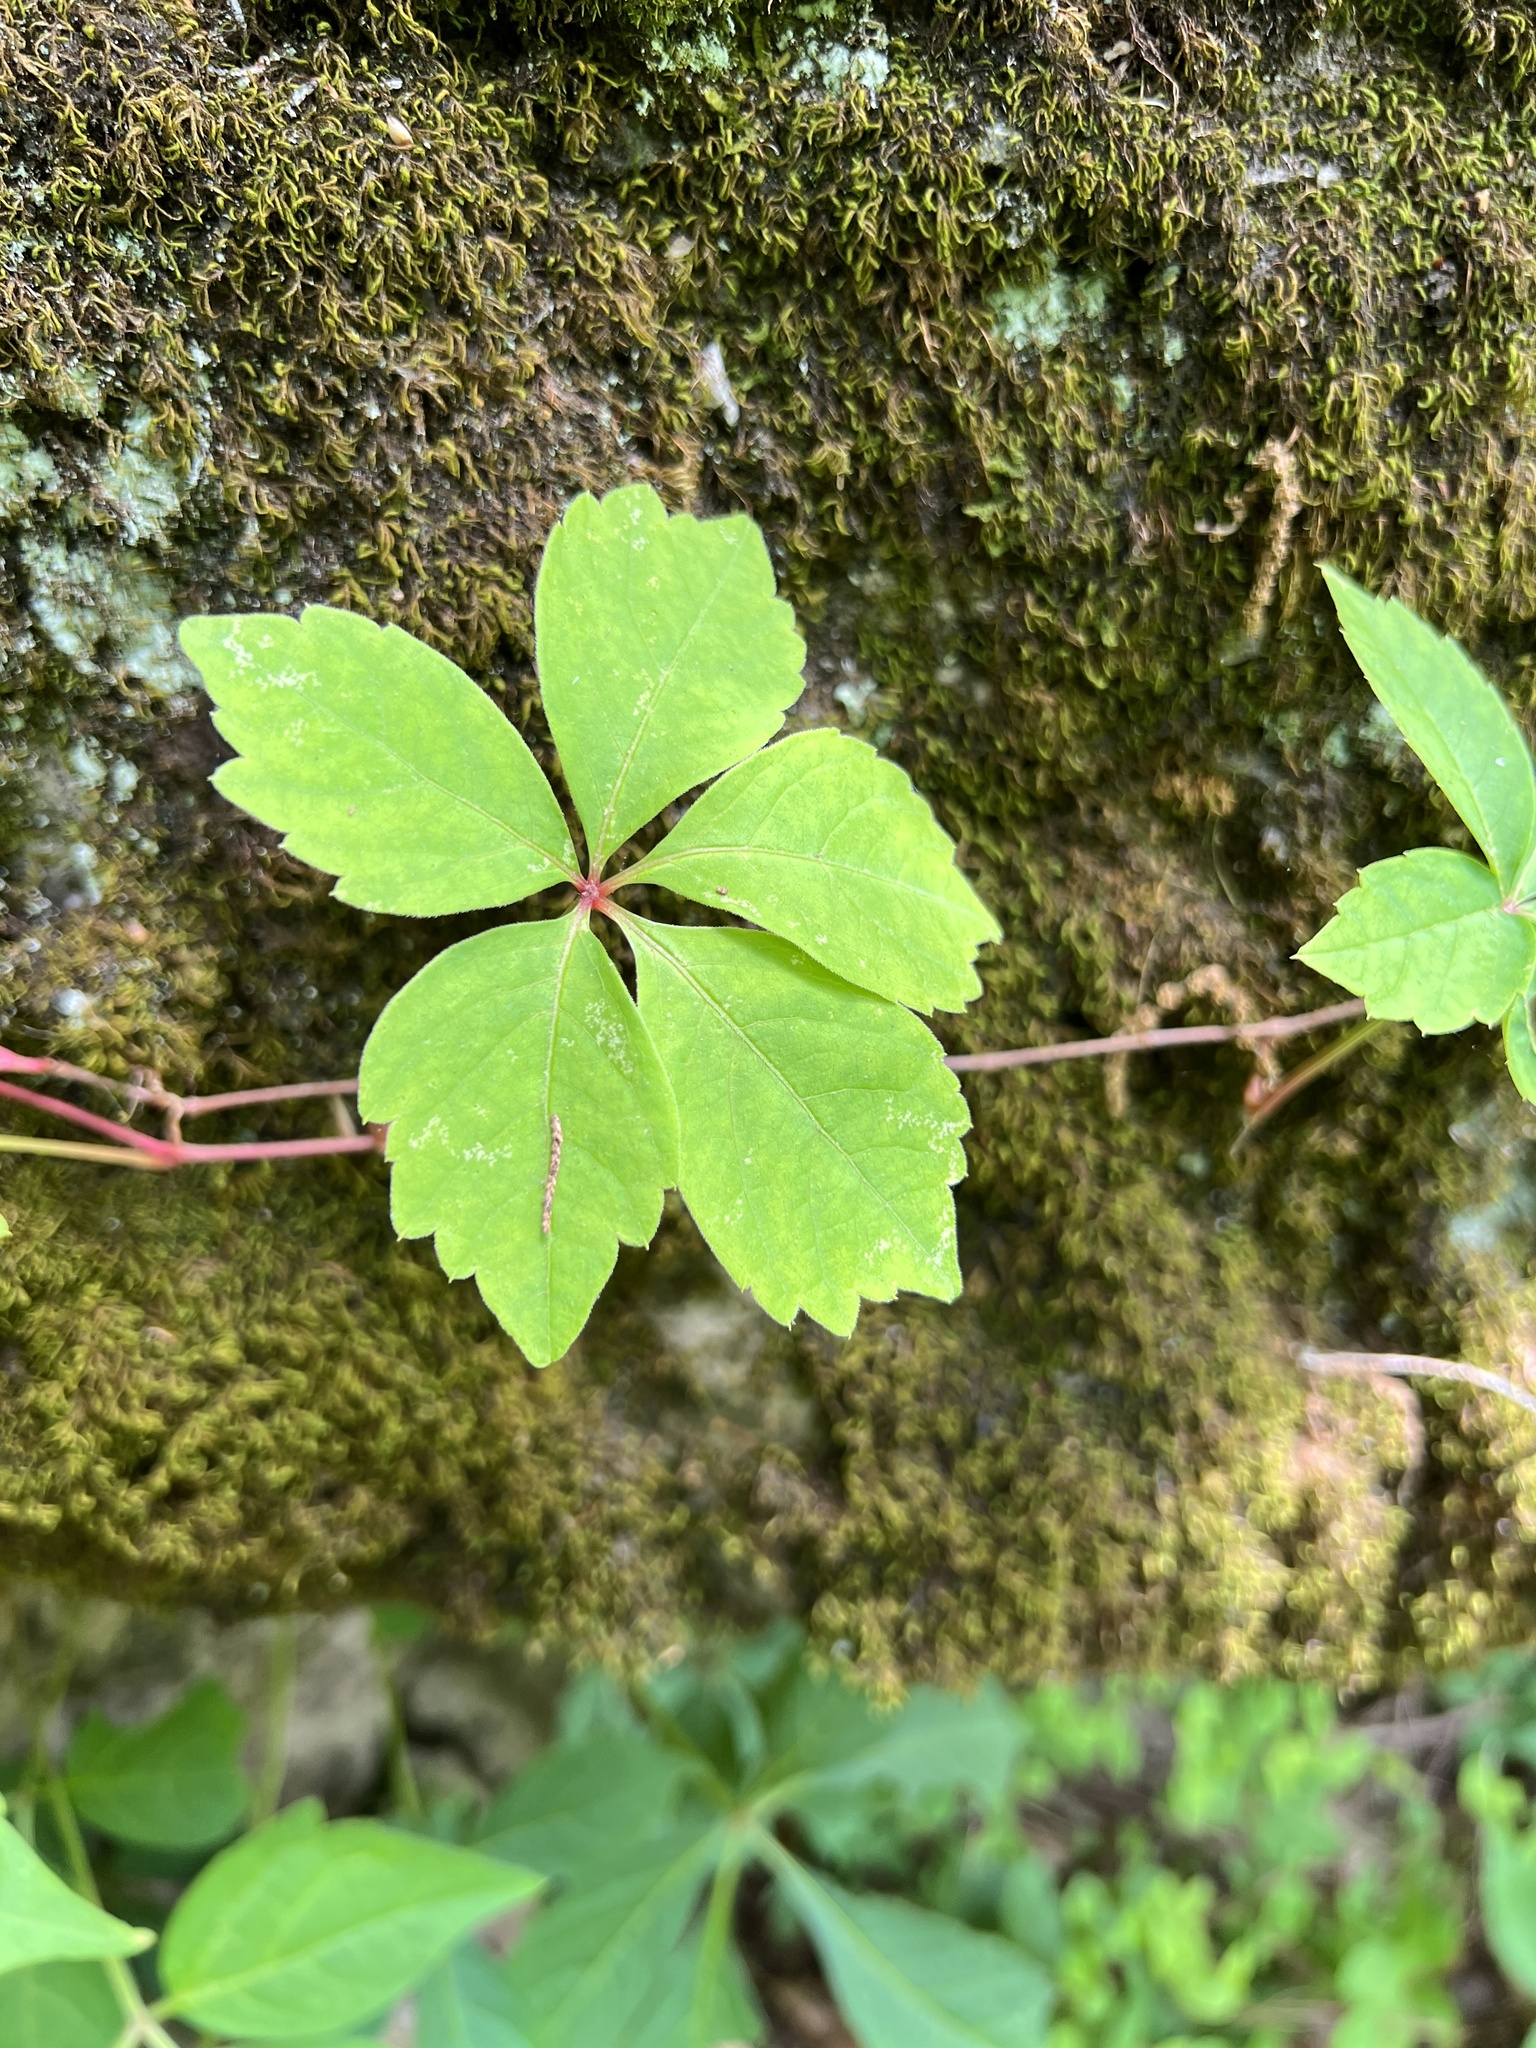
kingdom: Plantae
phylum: Tracheophyta
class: Magnoliopsida
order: Vitales
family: Vitaceae
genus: Parthenocissus
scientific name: Parthenocissus quinquefolia
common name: Virginia-creeper
